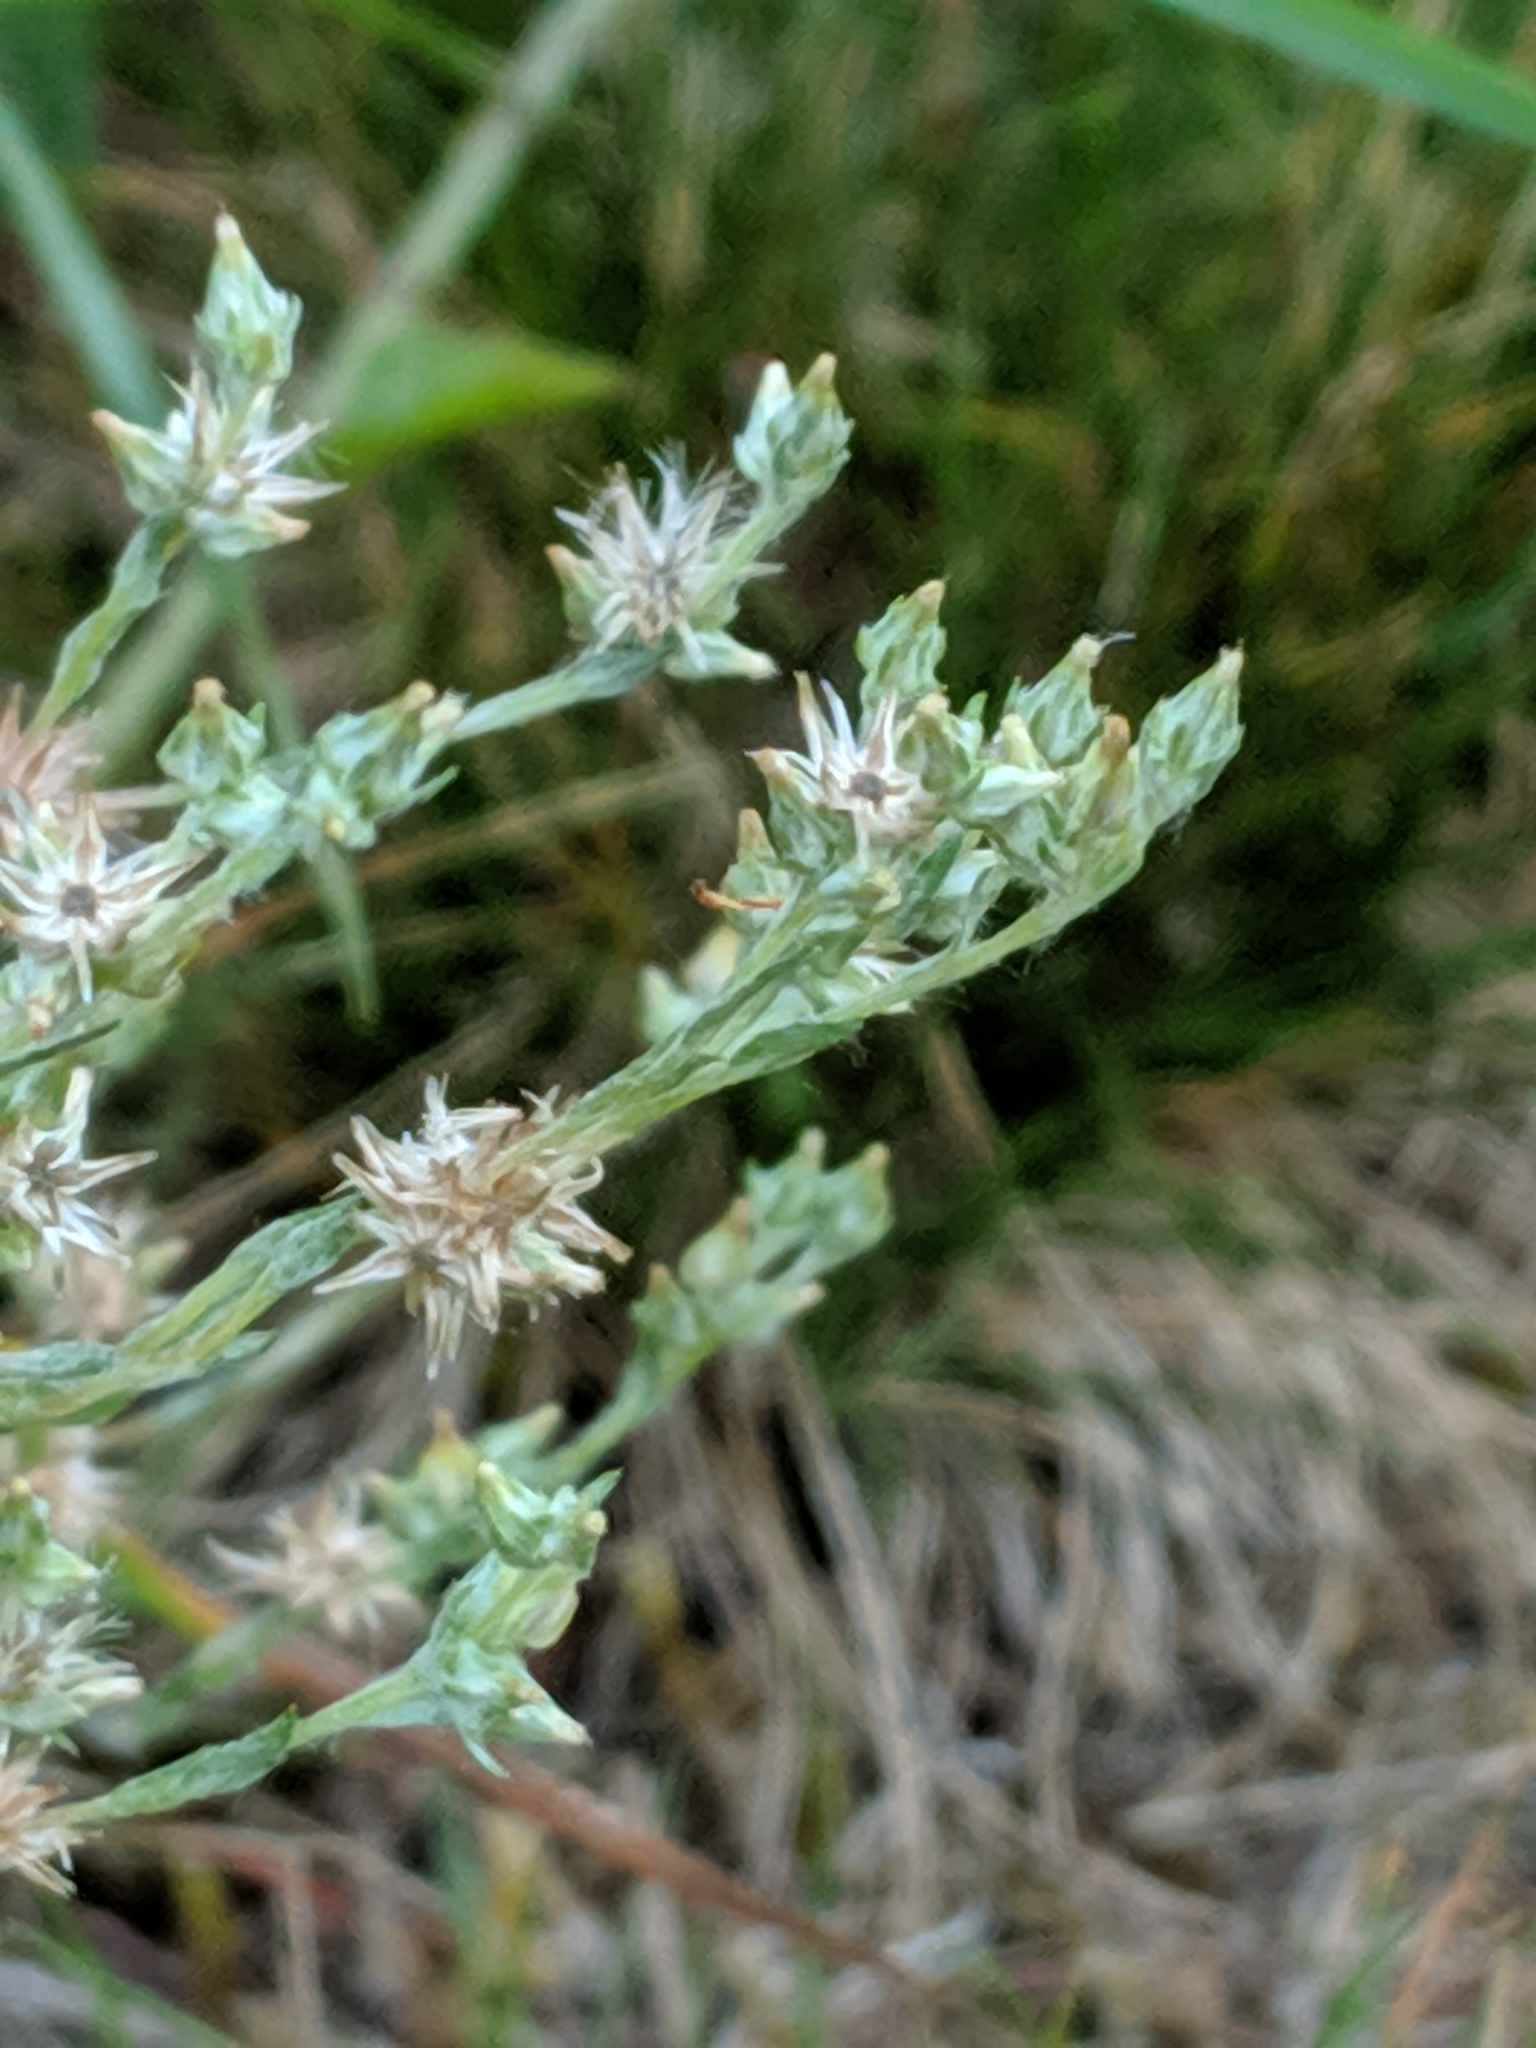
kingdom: Plantae
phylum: Tracheophyta
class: Magnoliopsida
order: Asterales
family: Asteraceae
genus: Logfia
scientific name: Logfia minima
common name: Little cottonrose
